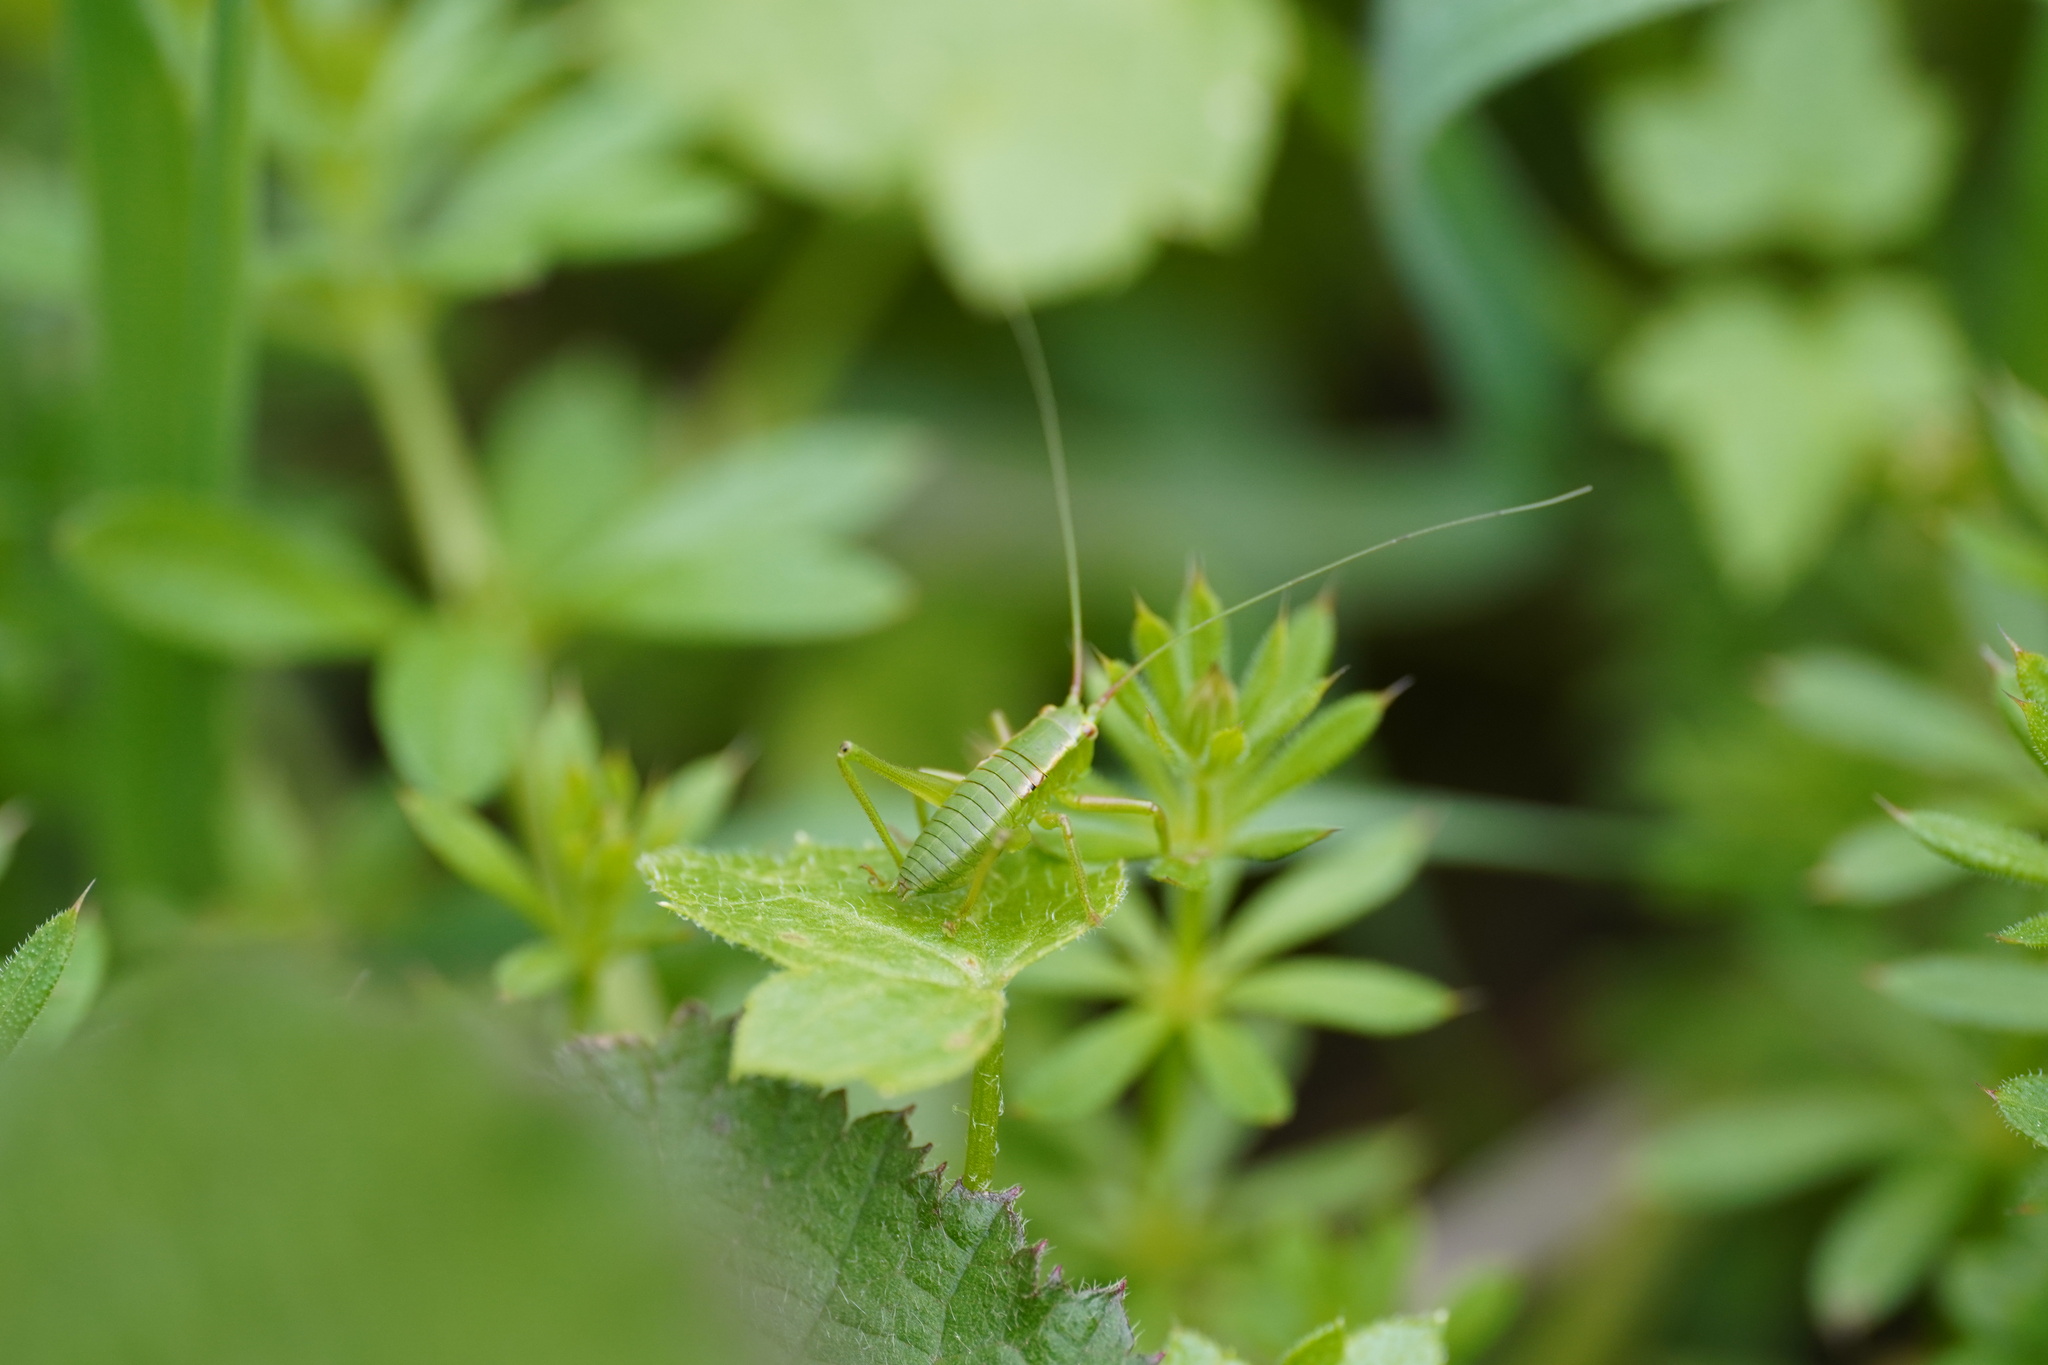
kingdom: Animalia
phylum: Arthropoda
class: Insecta
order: Orthoptera
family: Tettigoniidae
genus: Calliphona
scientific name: Calliphona gomerensis
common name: Gomera green bush-cricket
